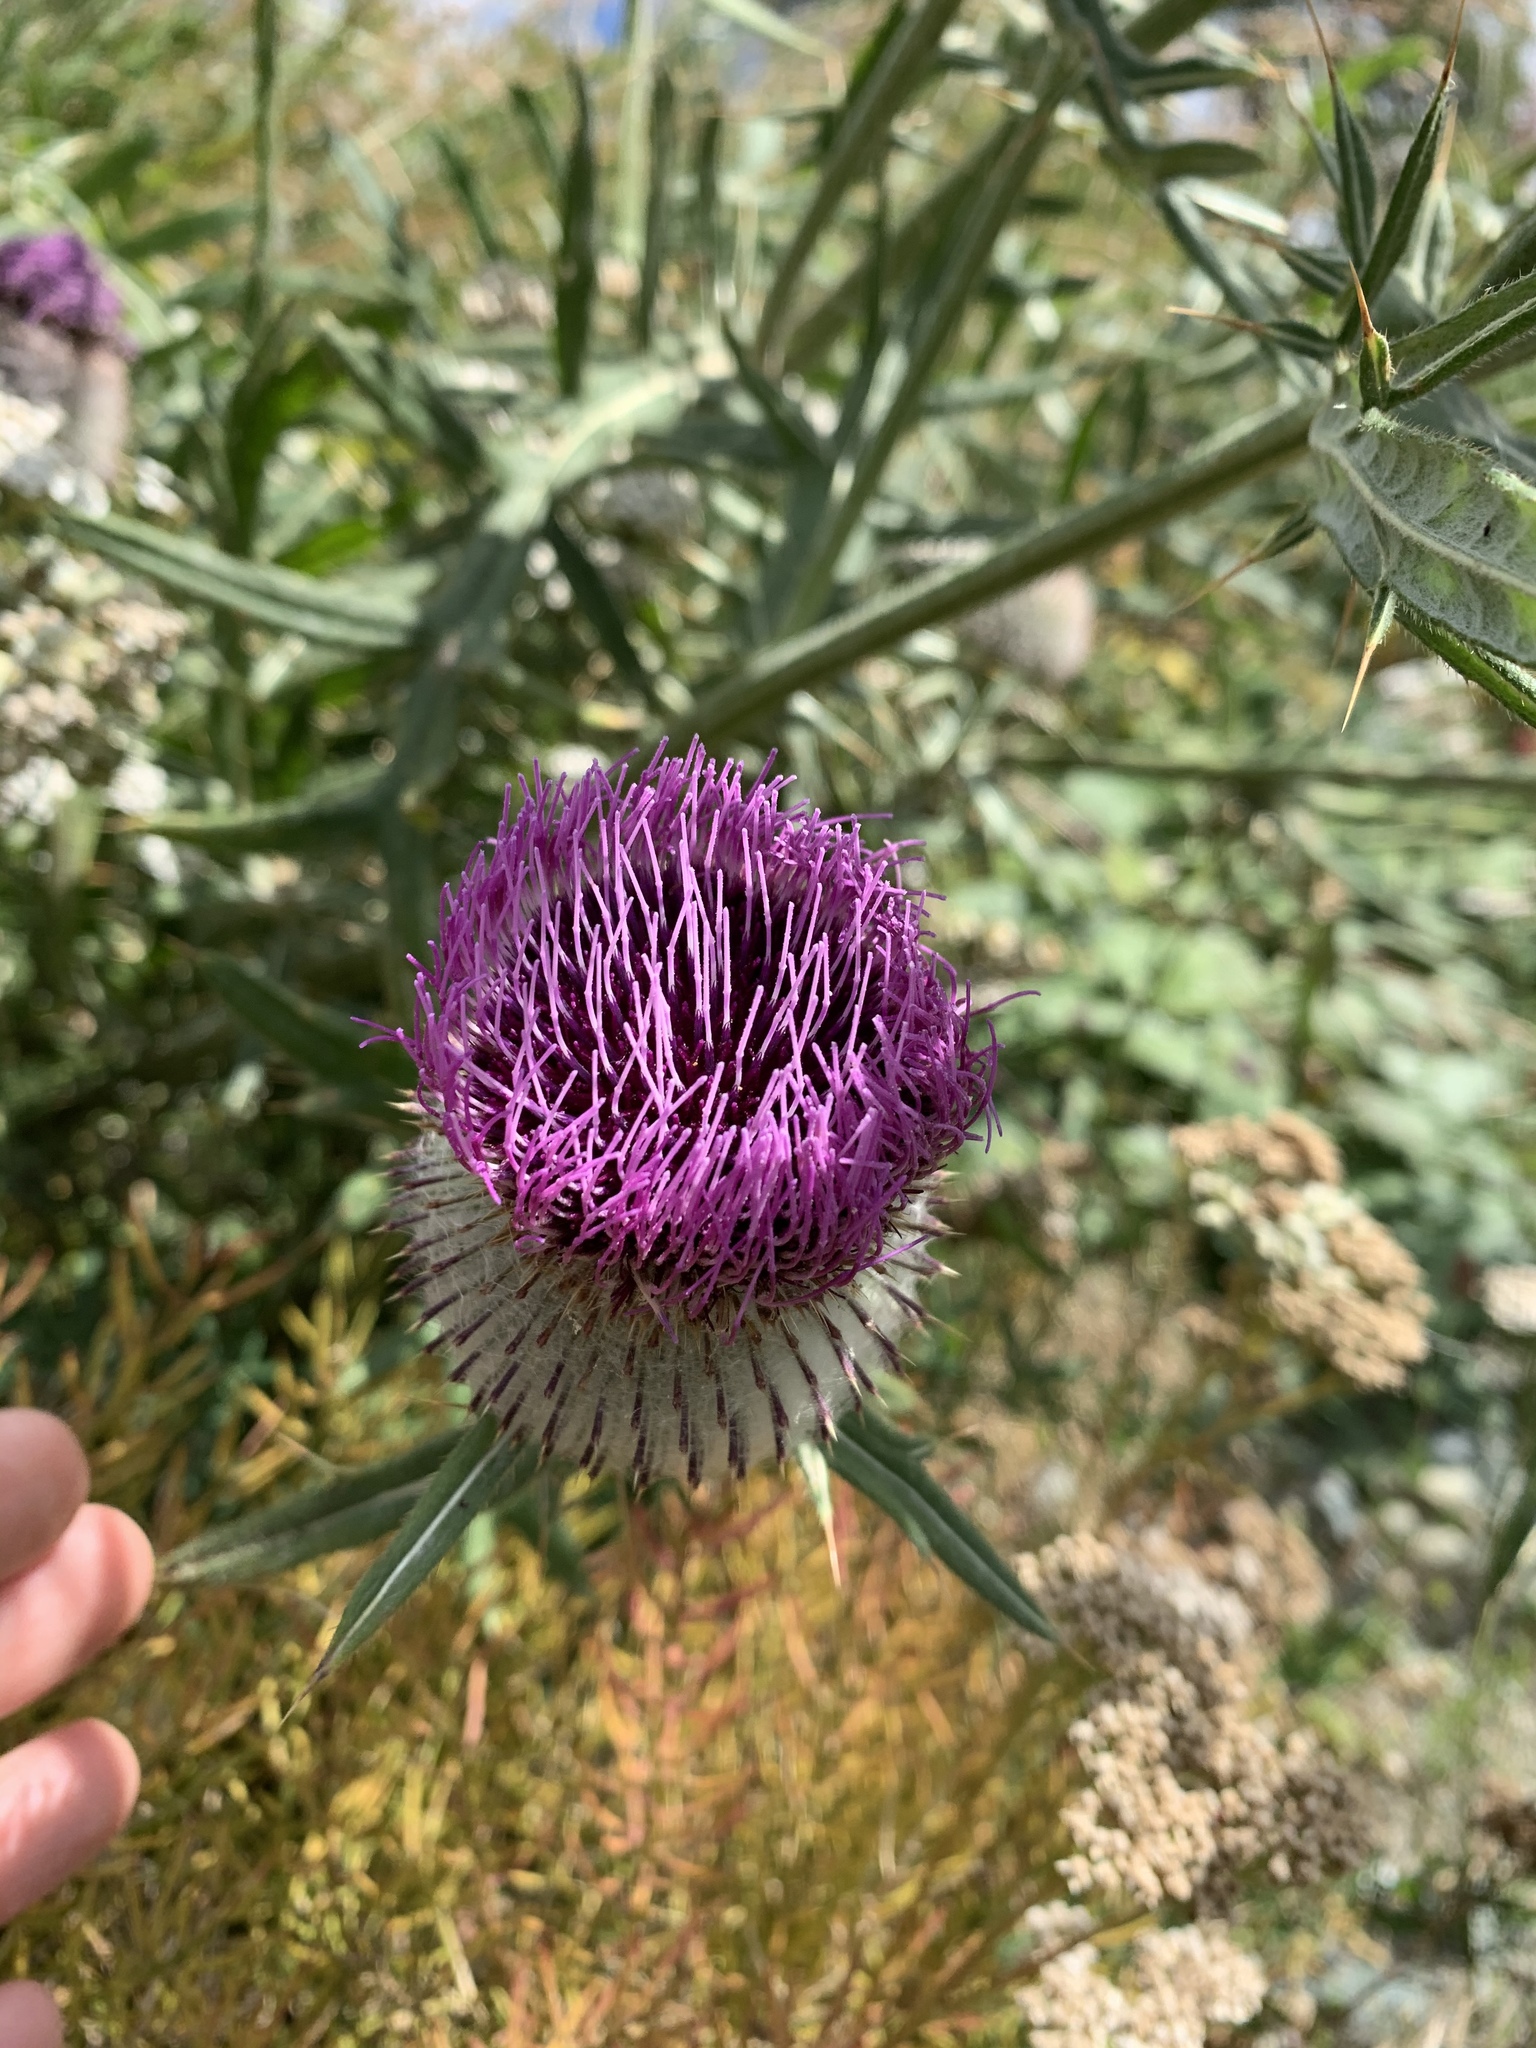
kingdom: Plantae
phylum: Tracheophyta
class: Magnoliopsida
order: Asterales
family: Asteraceae
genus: Lophiolepis
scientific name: Lophiolepis eriophora
